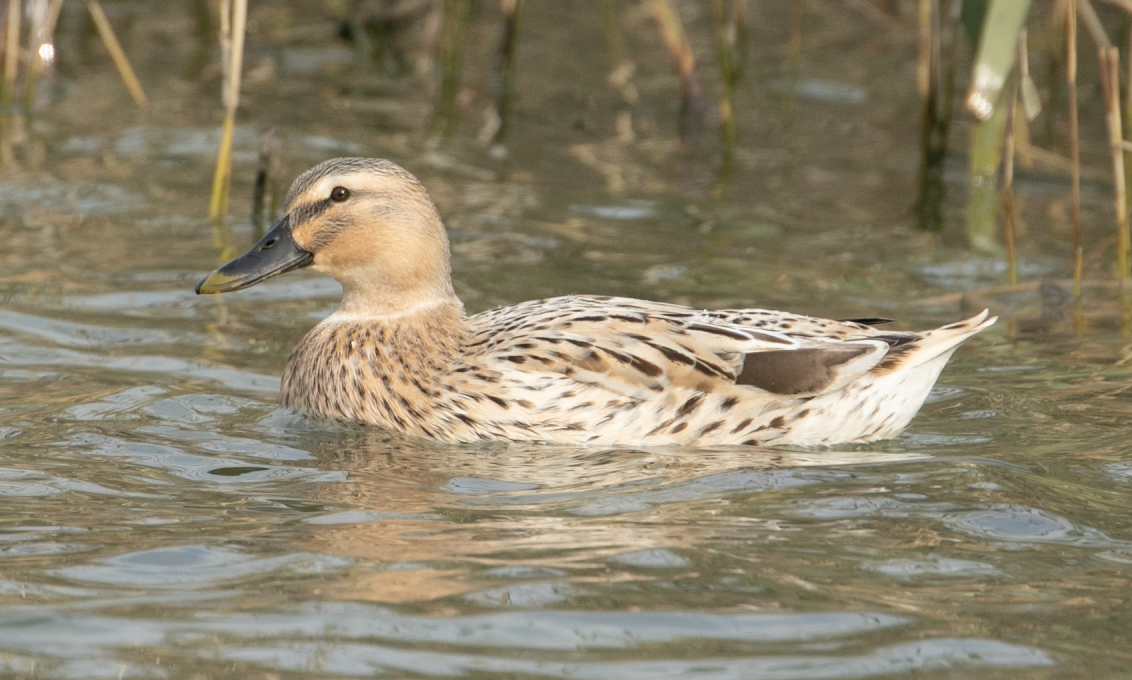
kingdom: Animalia
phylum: Chordata
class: Aves
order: Anseriformes
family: Anatidae
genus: Anas
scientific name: Anas platyrhynchos
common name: Mallard
